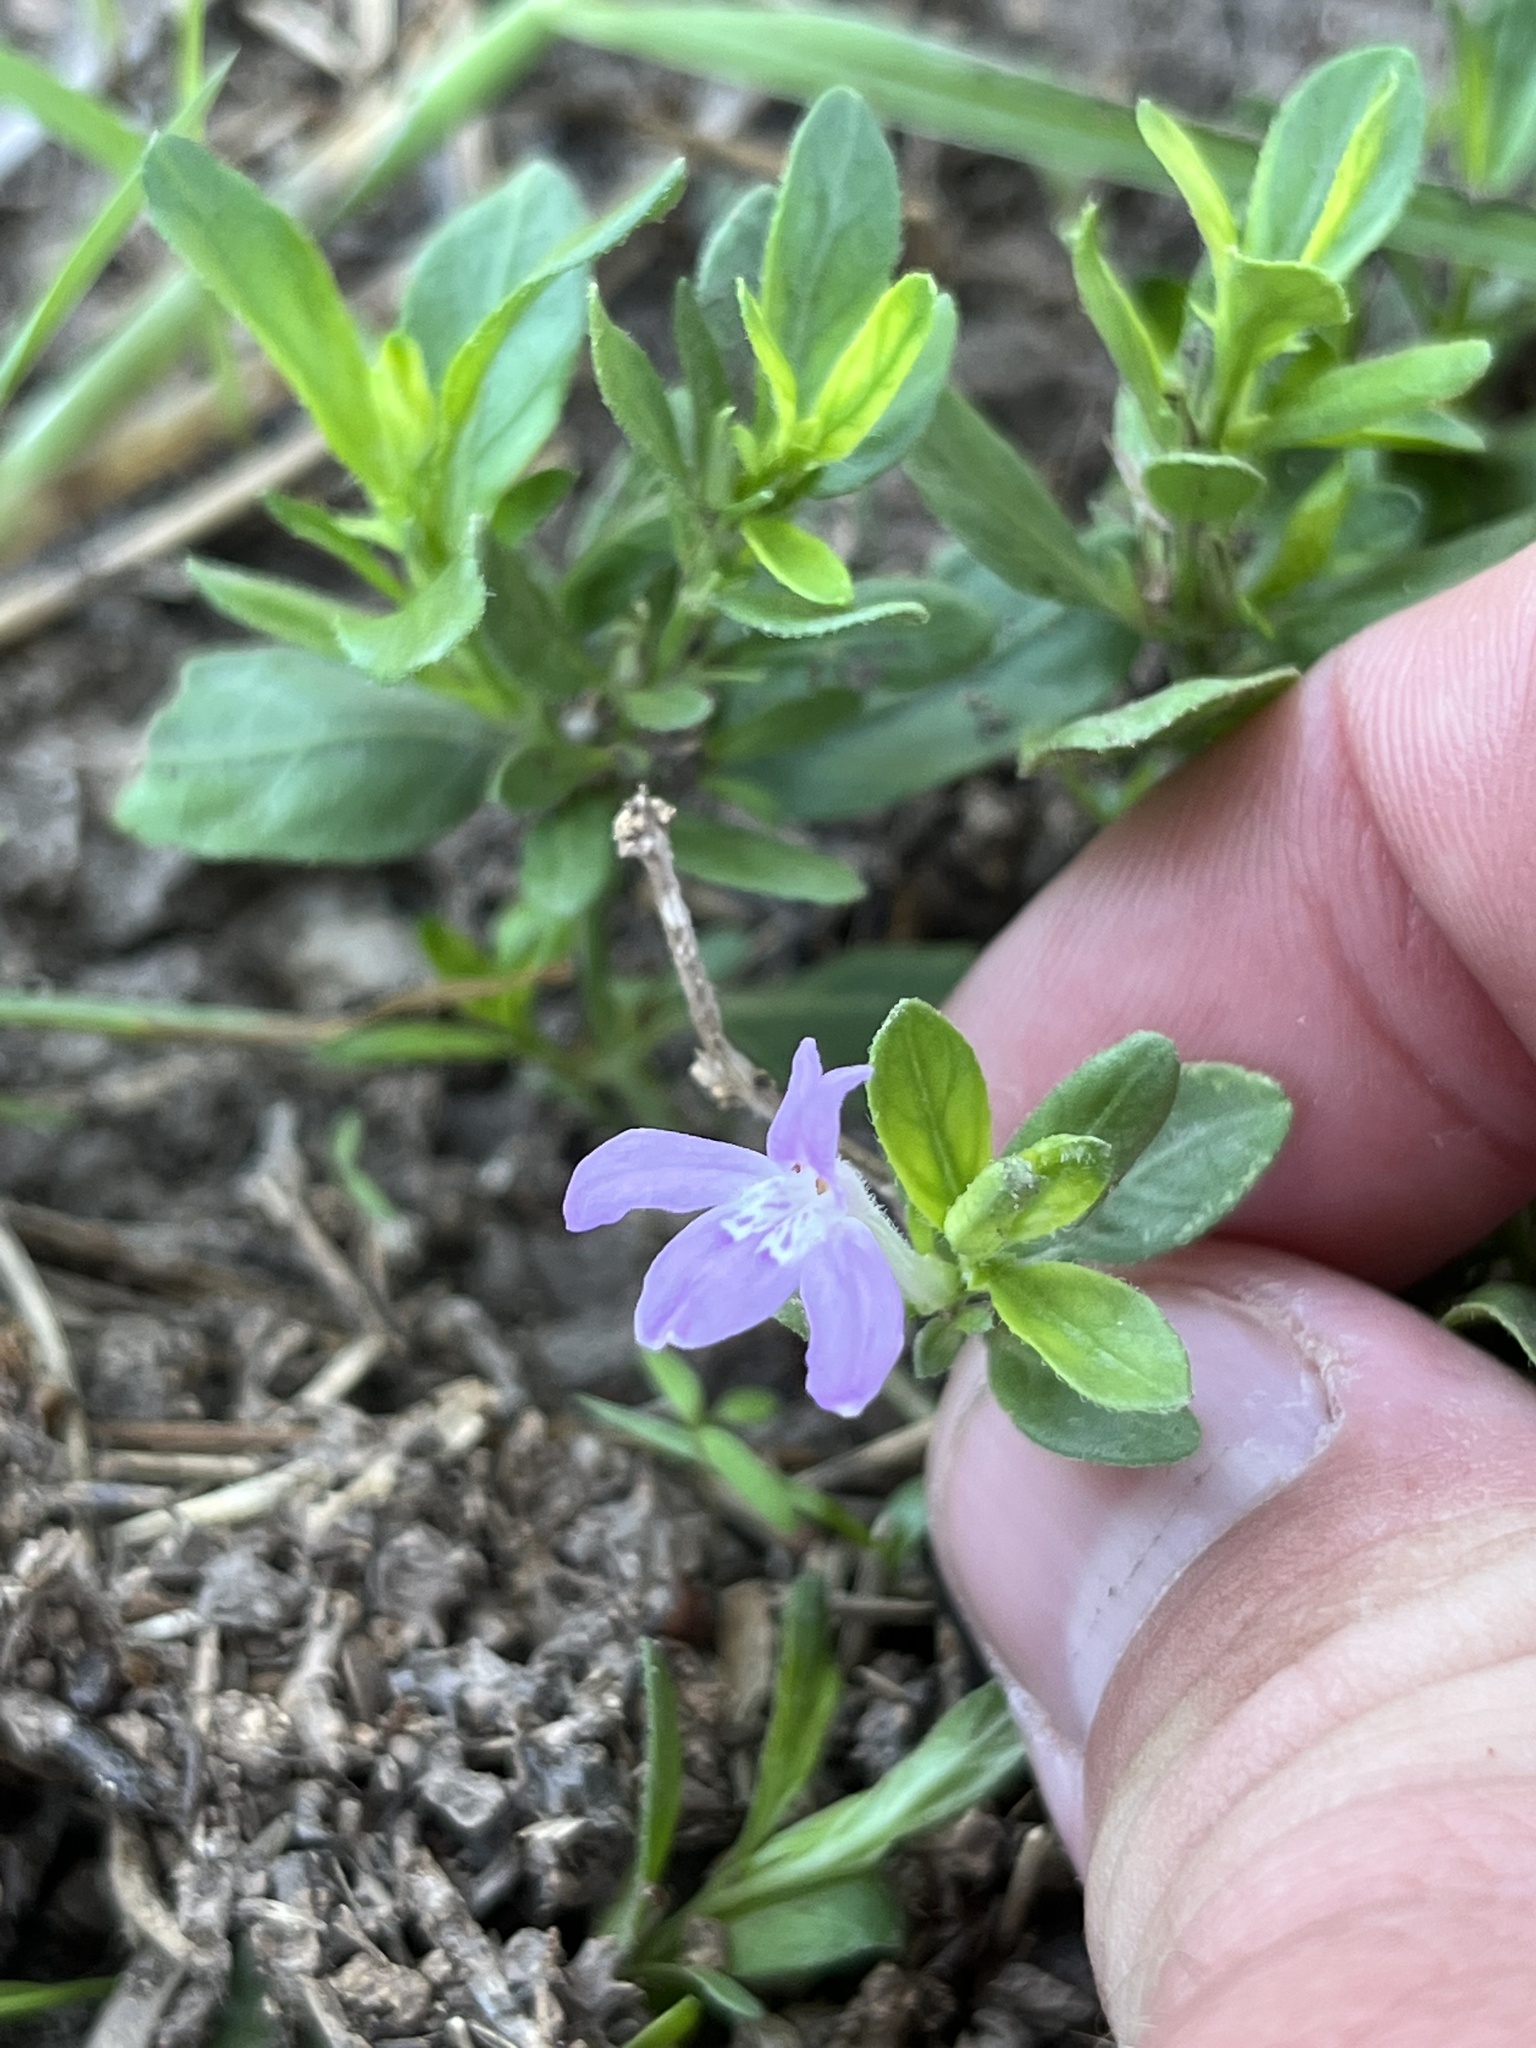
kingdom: Plantae
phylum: Tracheophyta
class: Magnoliopsida
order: Lamiales
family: Acanthaceae
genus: Justicia
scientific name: Justicia pilosella
